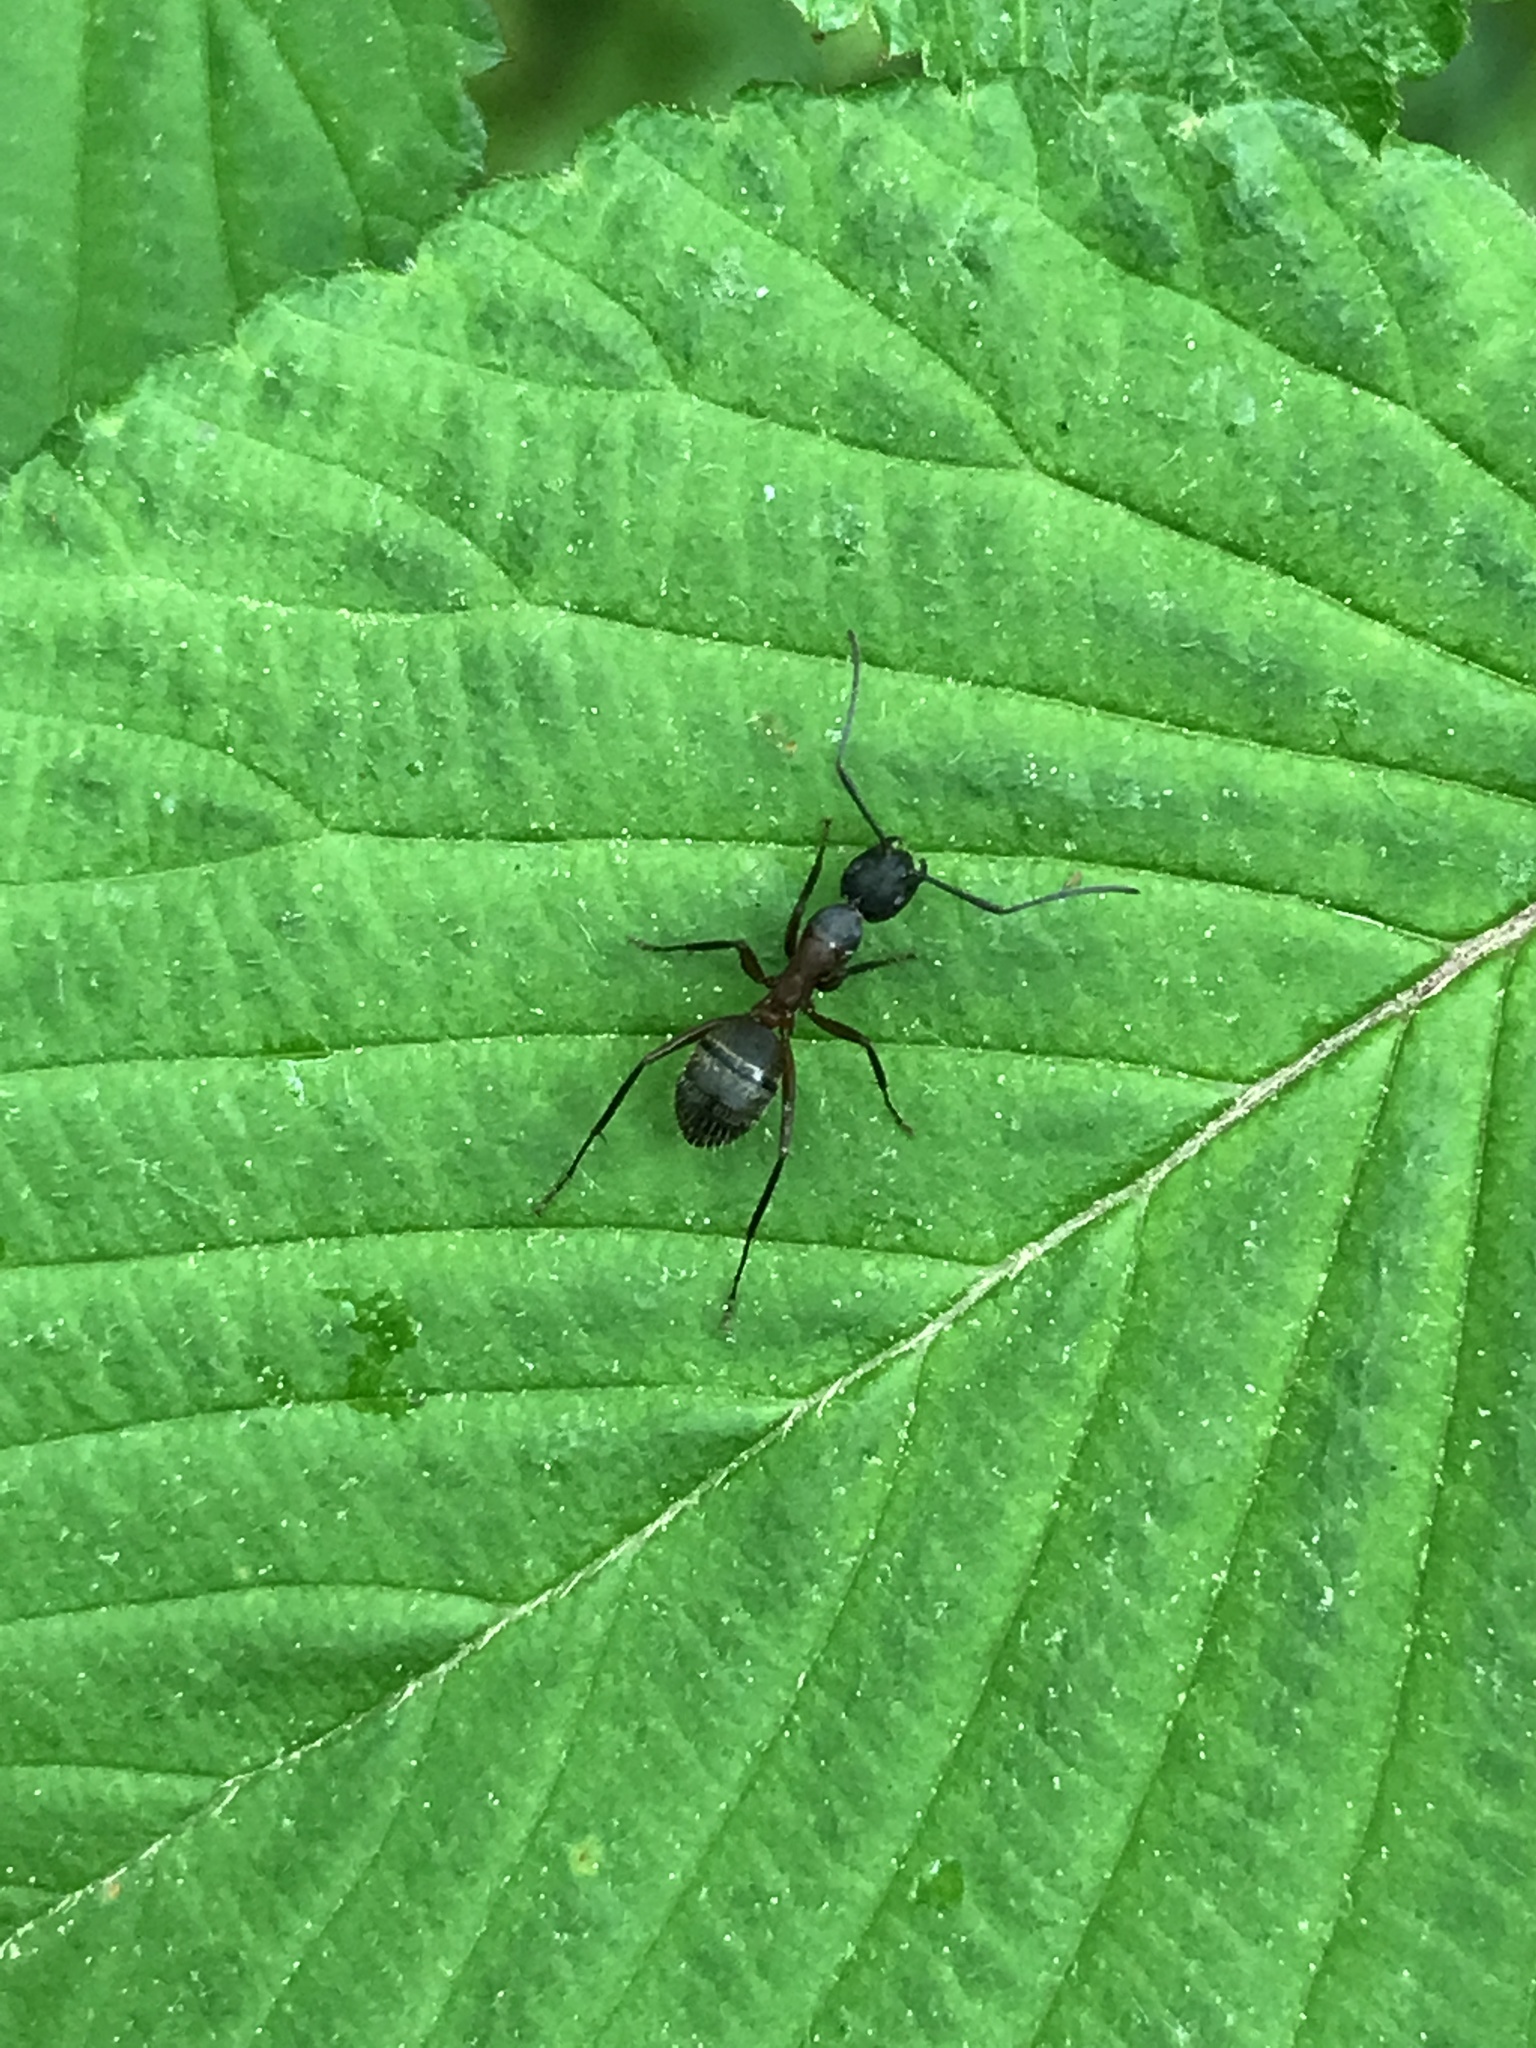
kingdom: Animalia
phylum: Arthropoda
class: Insecta
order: Hymenoptera
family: Formicidae
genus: Camponotus
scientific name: Camponotus chromaiodes
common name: Red carpenter ant
